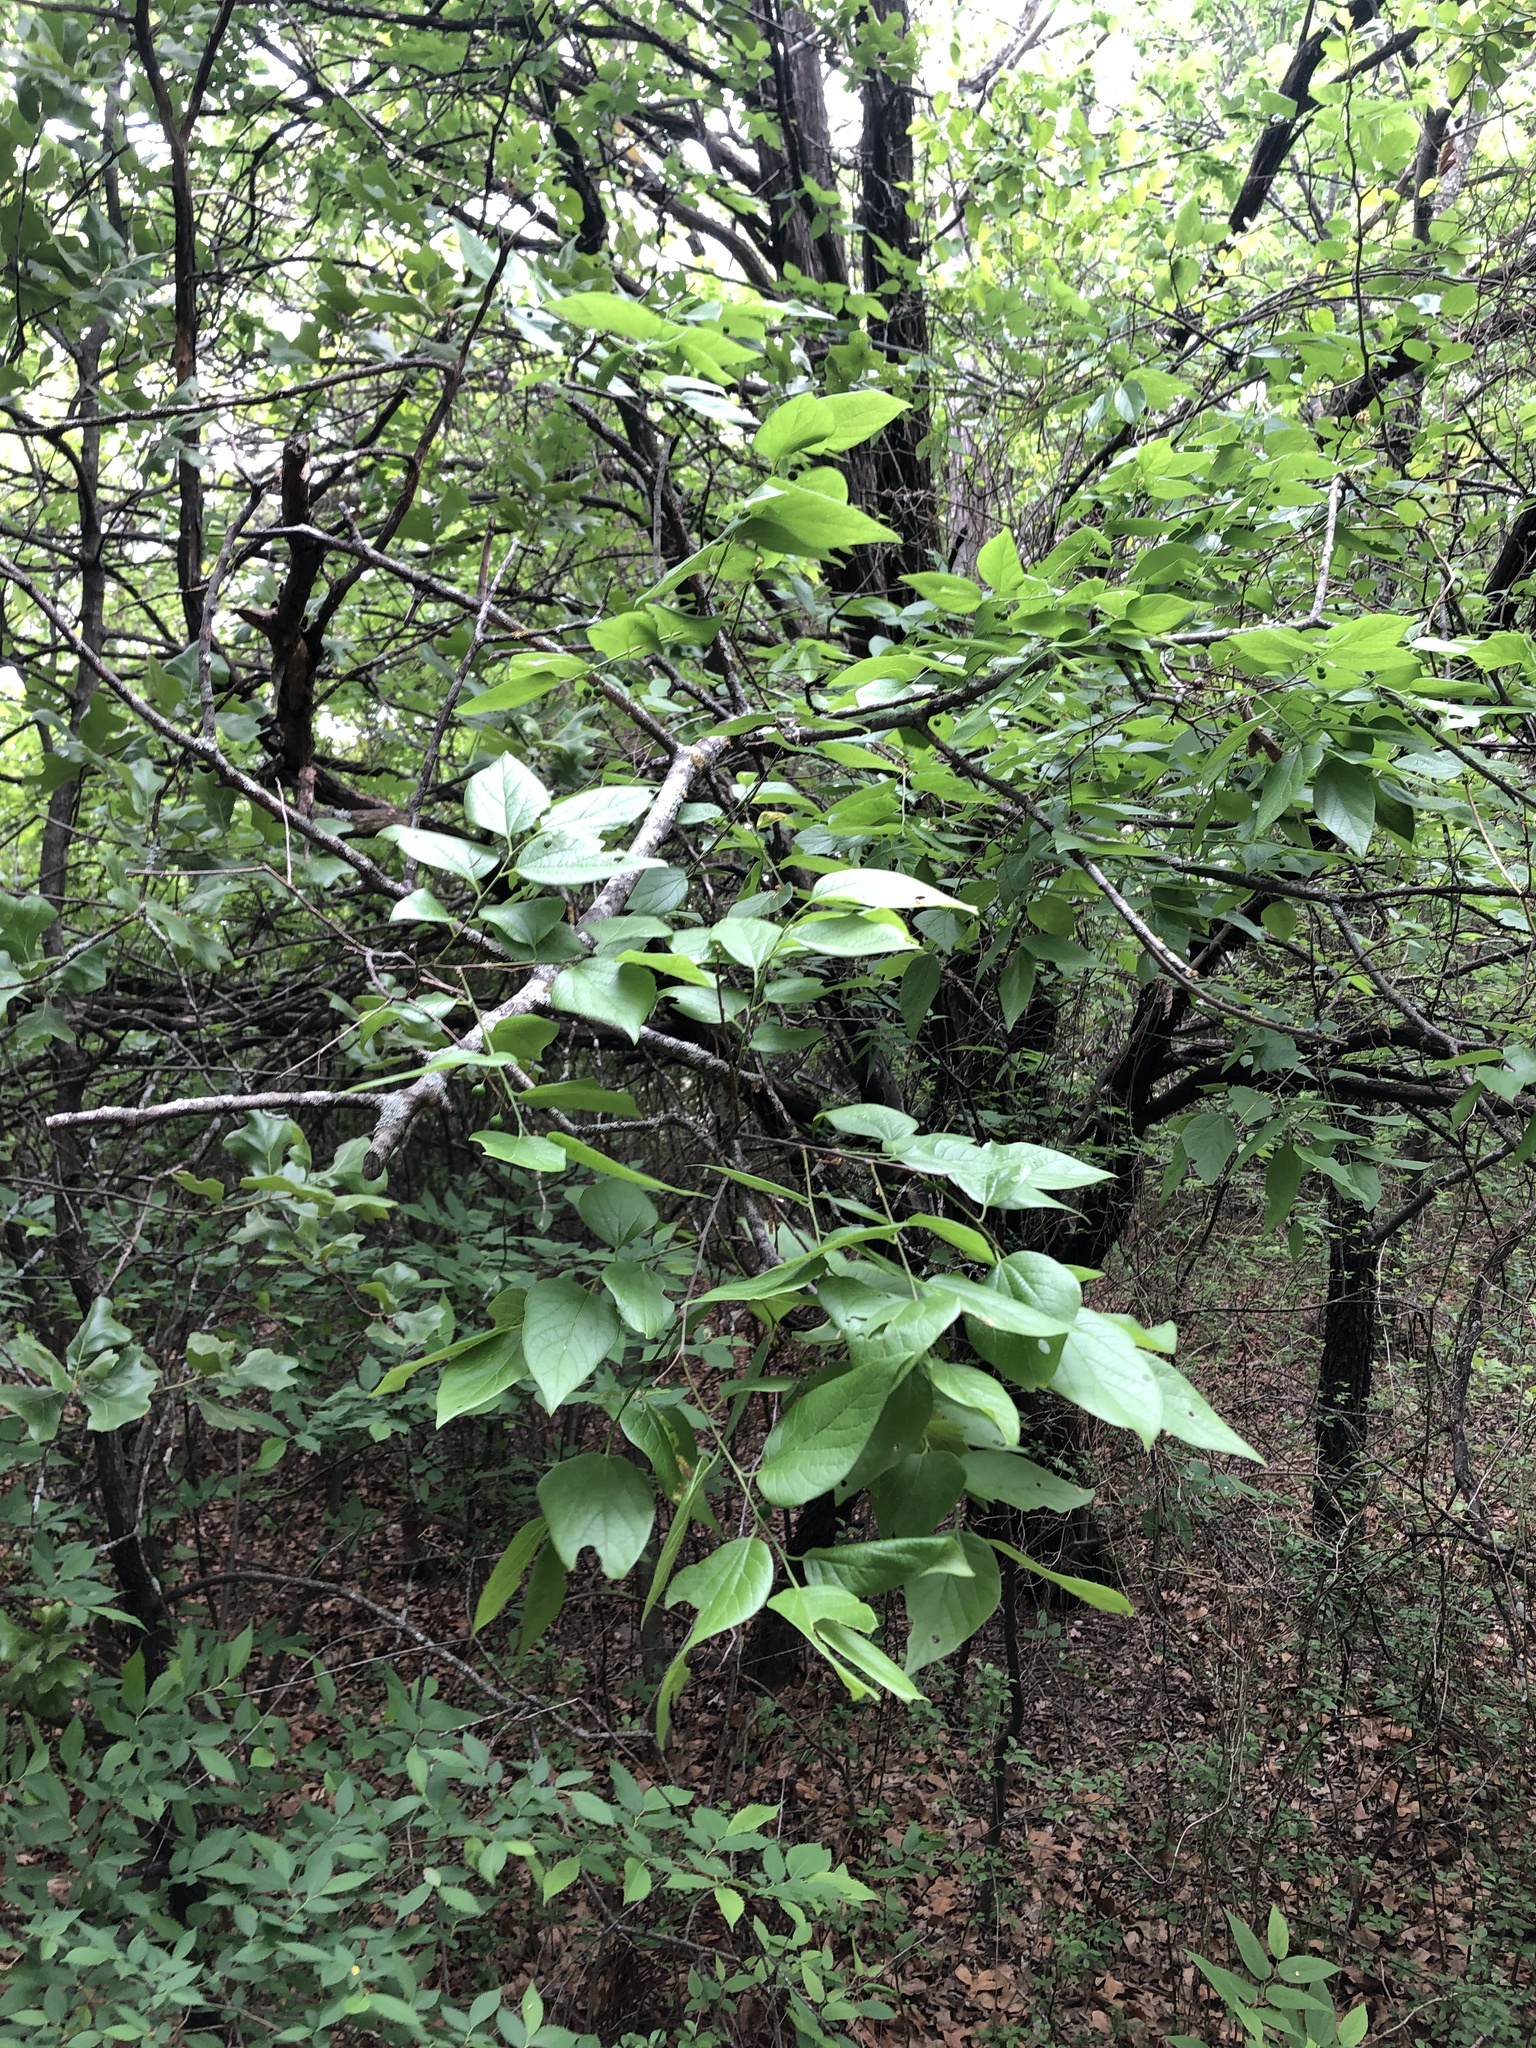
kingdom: Plantae
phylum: Tracheophyta
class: Magnoliopsida
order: Rosales
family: Cannabaceae
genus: Celtis
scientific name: Celtis reticulata
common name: Netleaf hackberry
